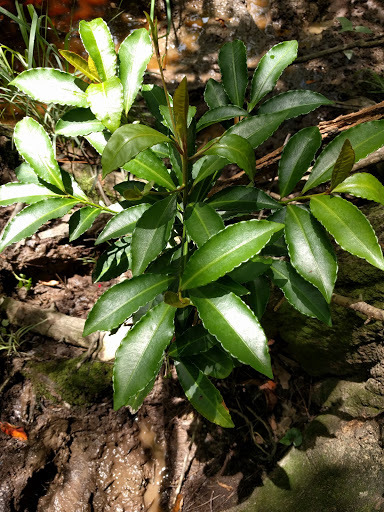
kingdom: Plantae
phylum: Tracheophyta
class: Magnoliopsida
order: Ericales
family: Primulaceae
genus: Ardisia
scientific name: Ardisia crenata
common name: Hen's eyes
